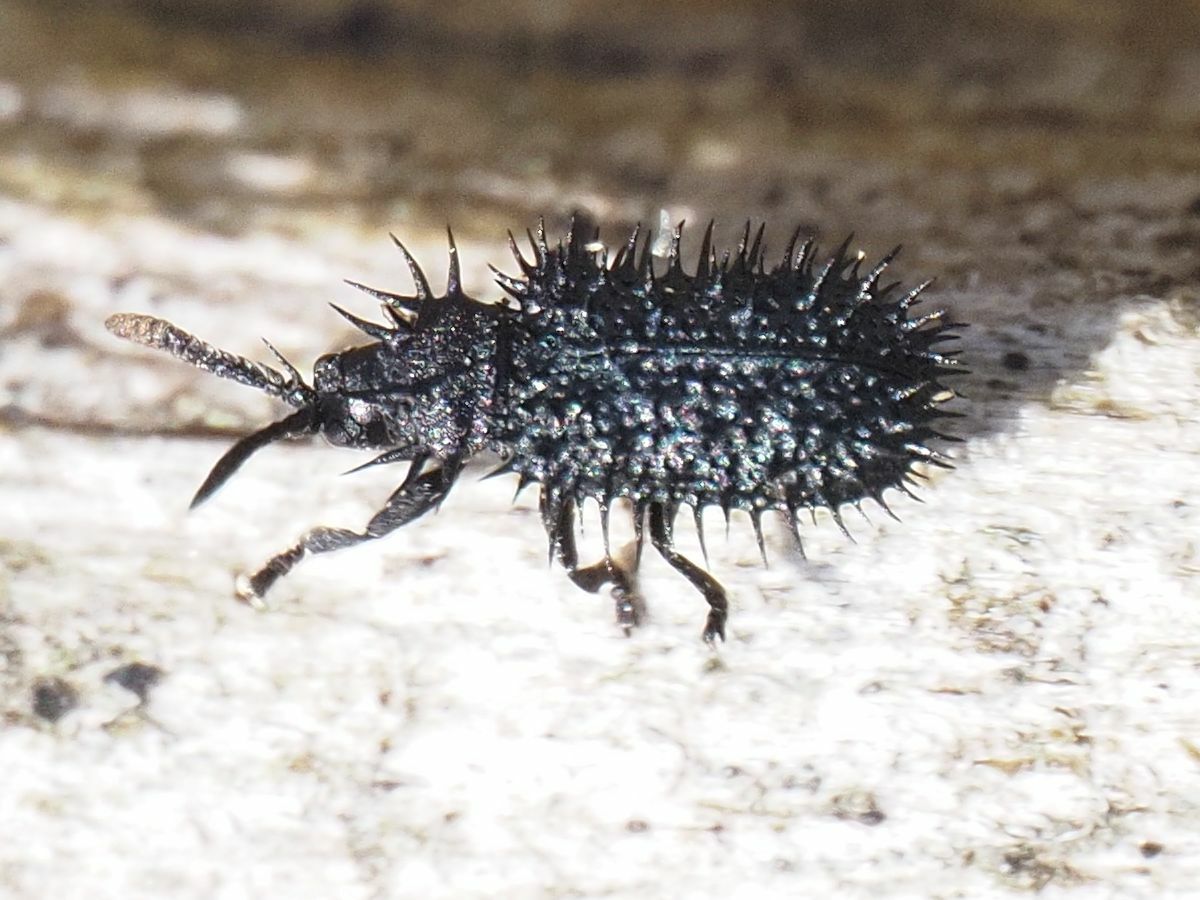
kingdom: Animalia
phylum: Arthropoda
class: Insecta
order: Coleoptera
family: Chrysomelidae
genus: Hispa
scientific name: Hispa atra
